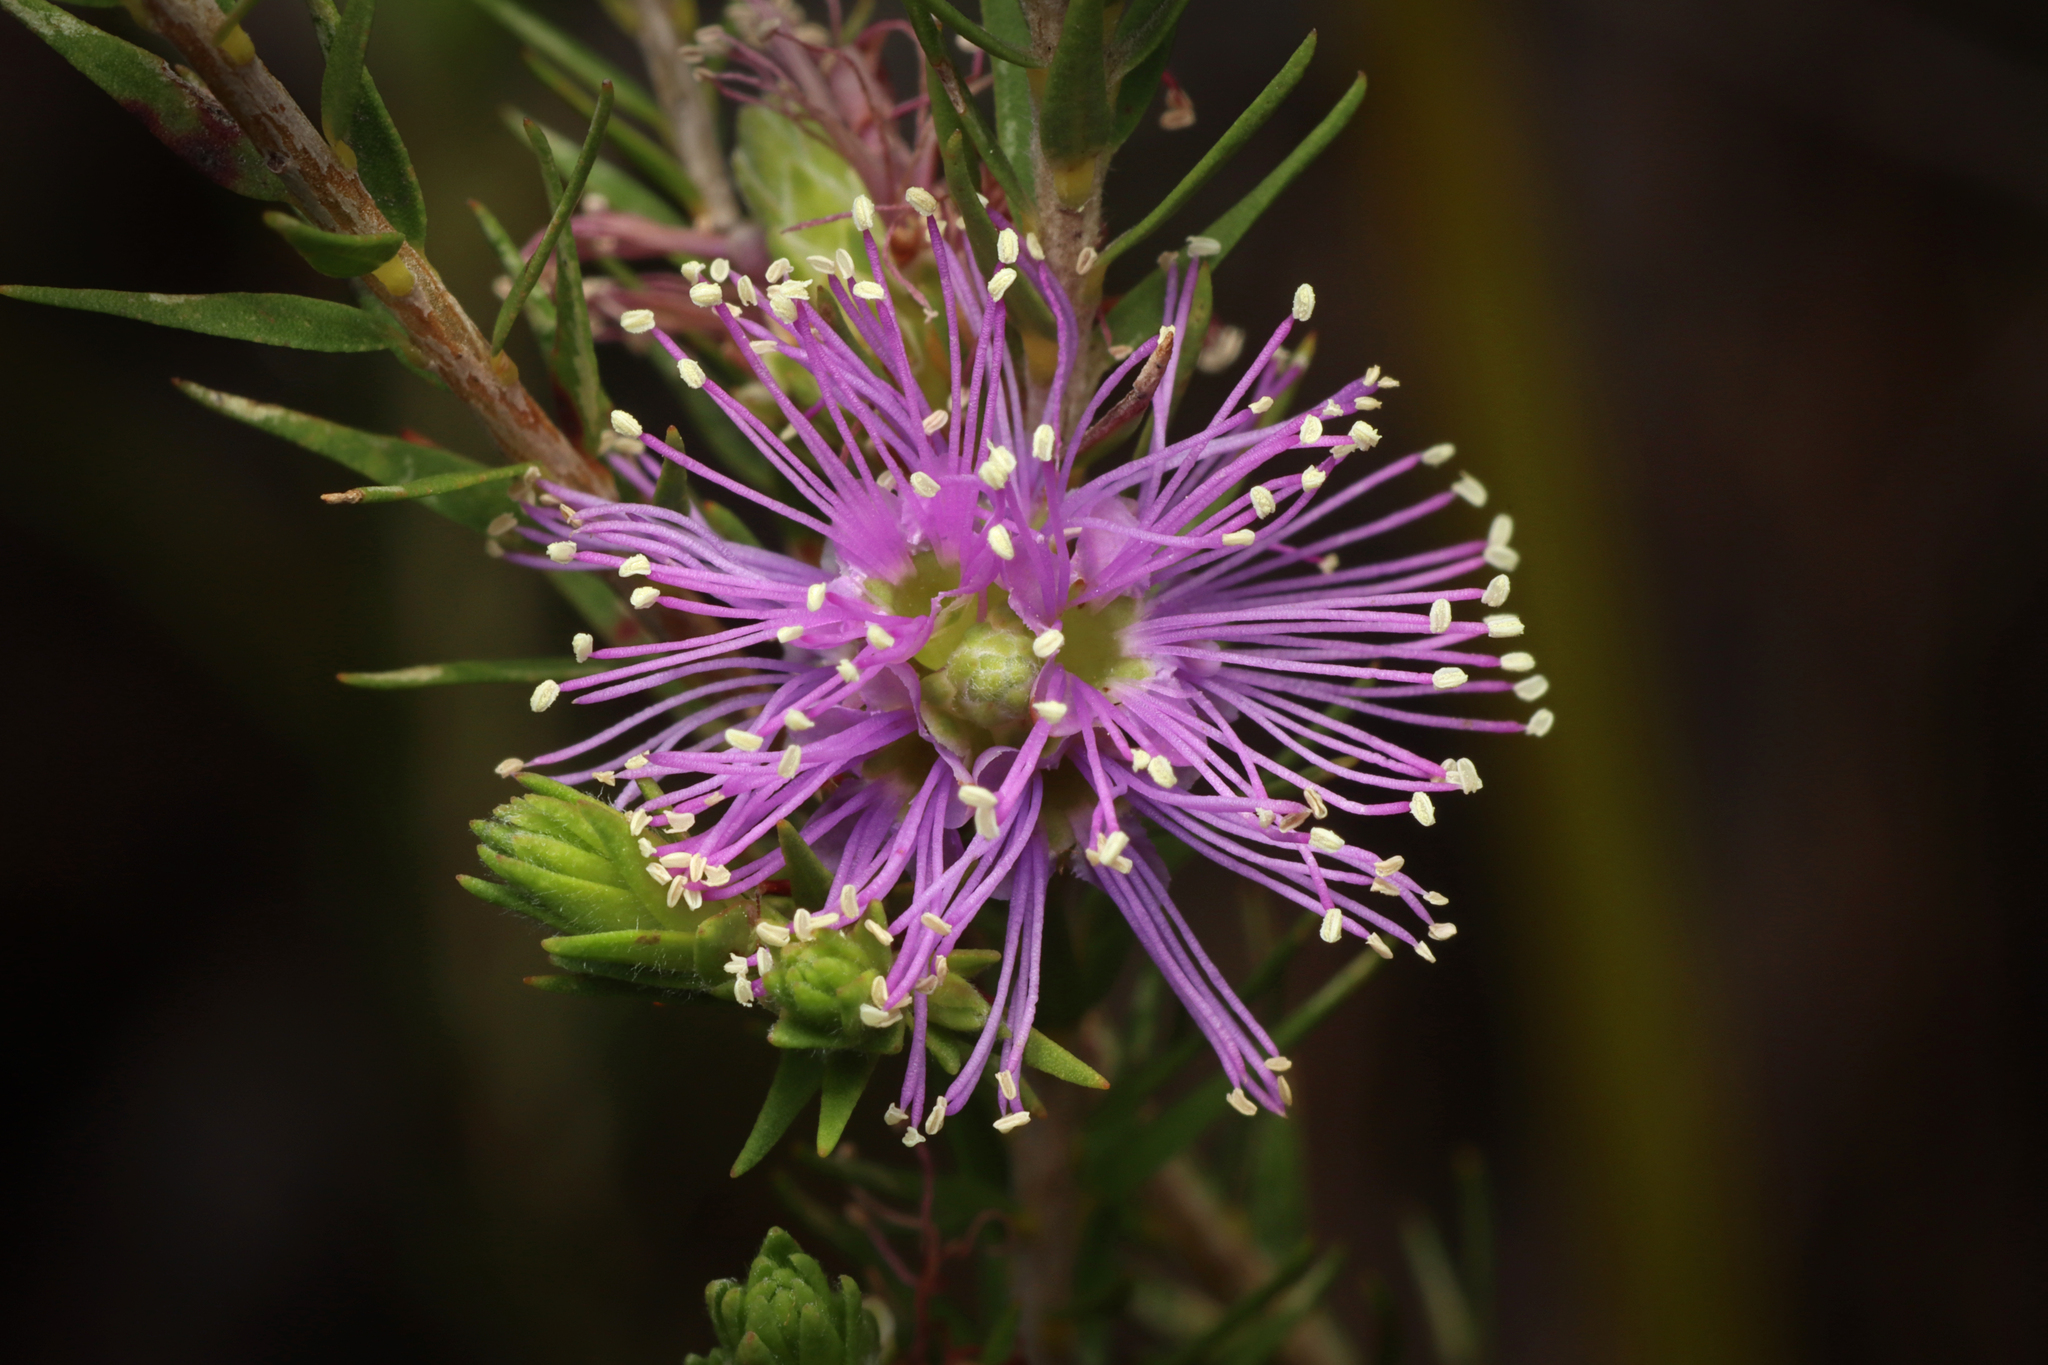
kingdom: Plantae
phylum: Tracheophyta
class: Magnoliopsida
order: Myrtales
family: Myrtaceae
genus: Melaleuca
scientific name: Melaleuca decussata
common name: Cross-leaf honey myrtle
